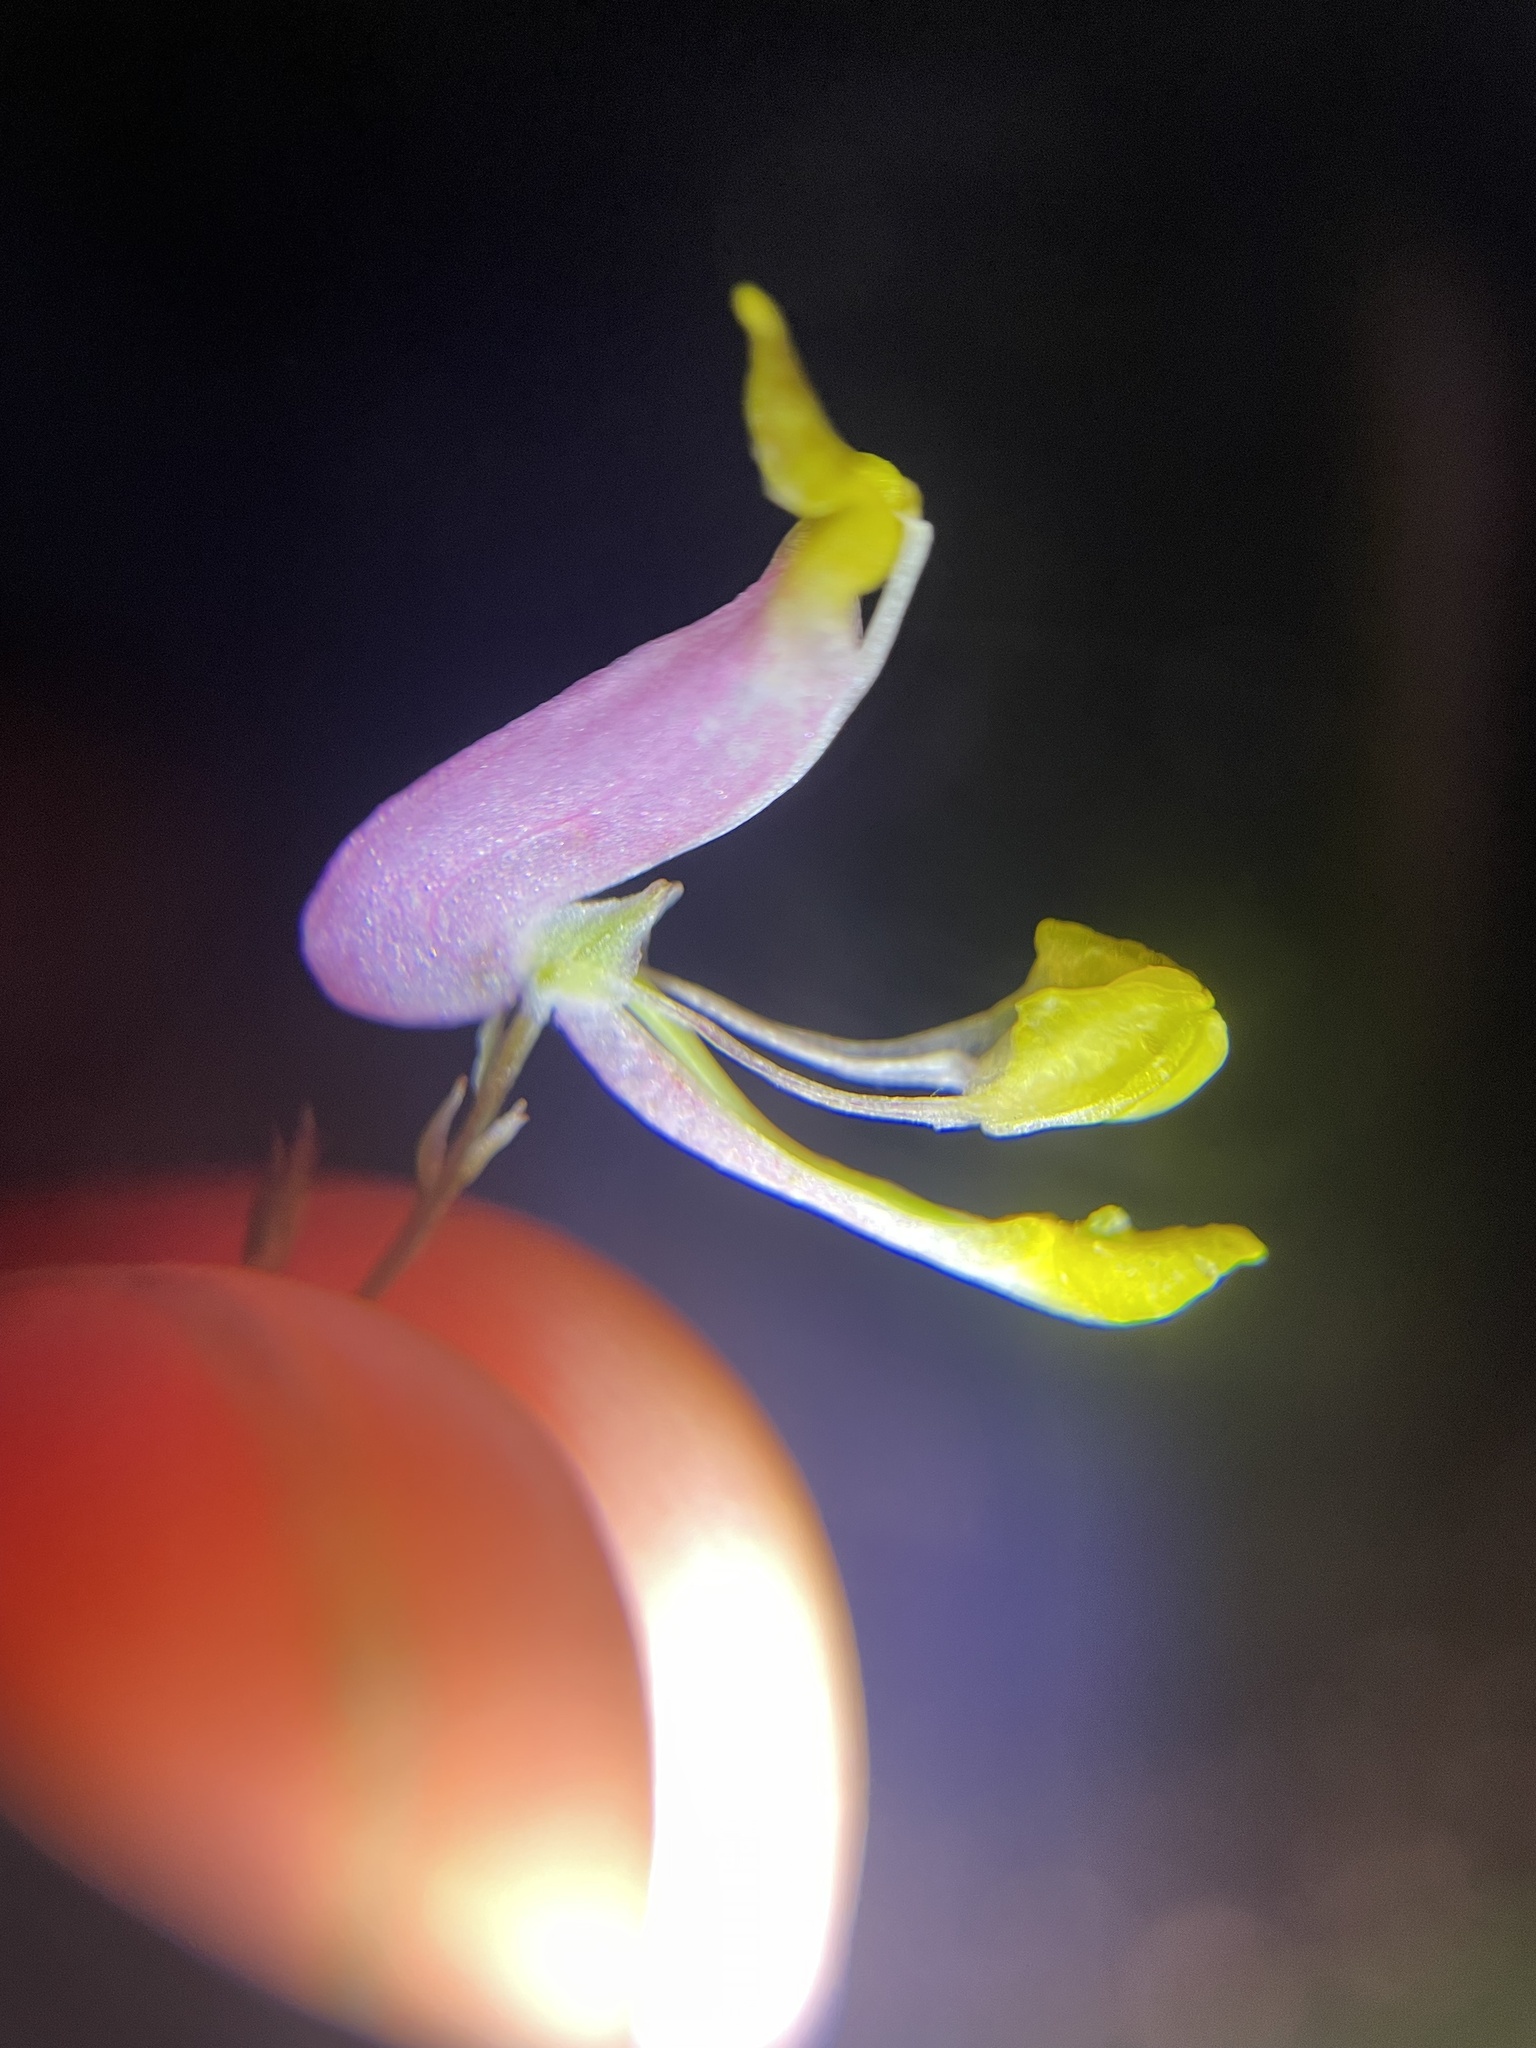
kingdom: Plantae
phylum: Tracheophyta
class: Magnoliopsida
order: Ranunculales
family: Papaveraceae
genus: Capnoides
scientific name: Capnoides sempervirens
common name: Rock harlequin
